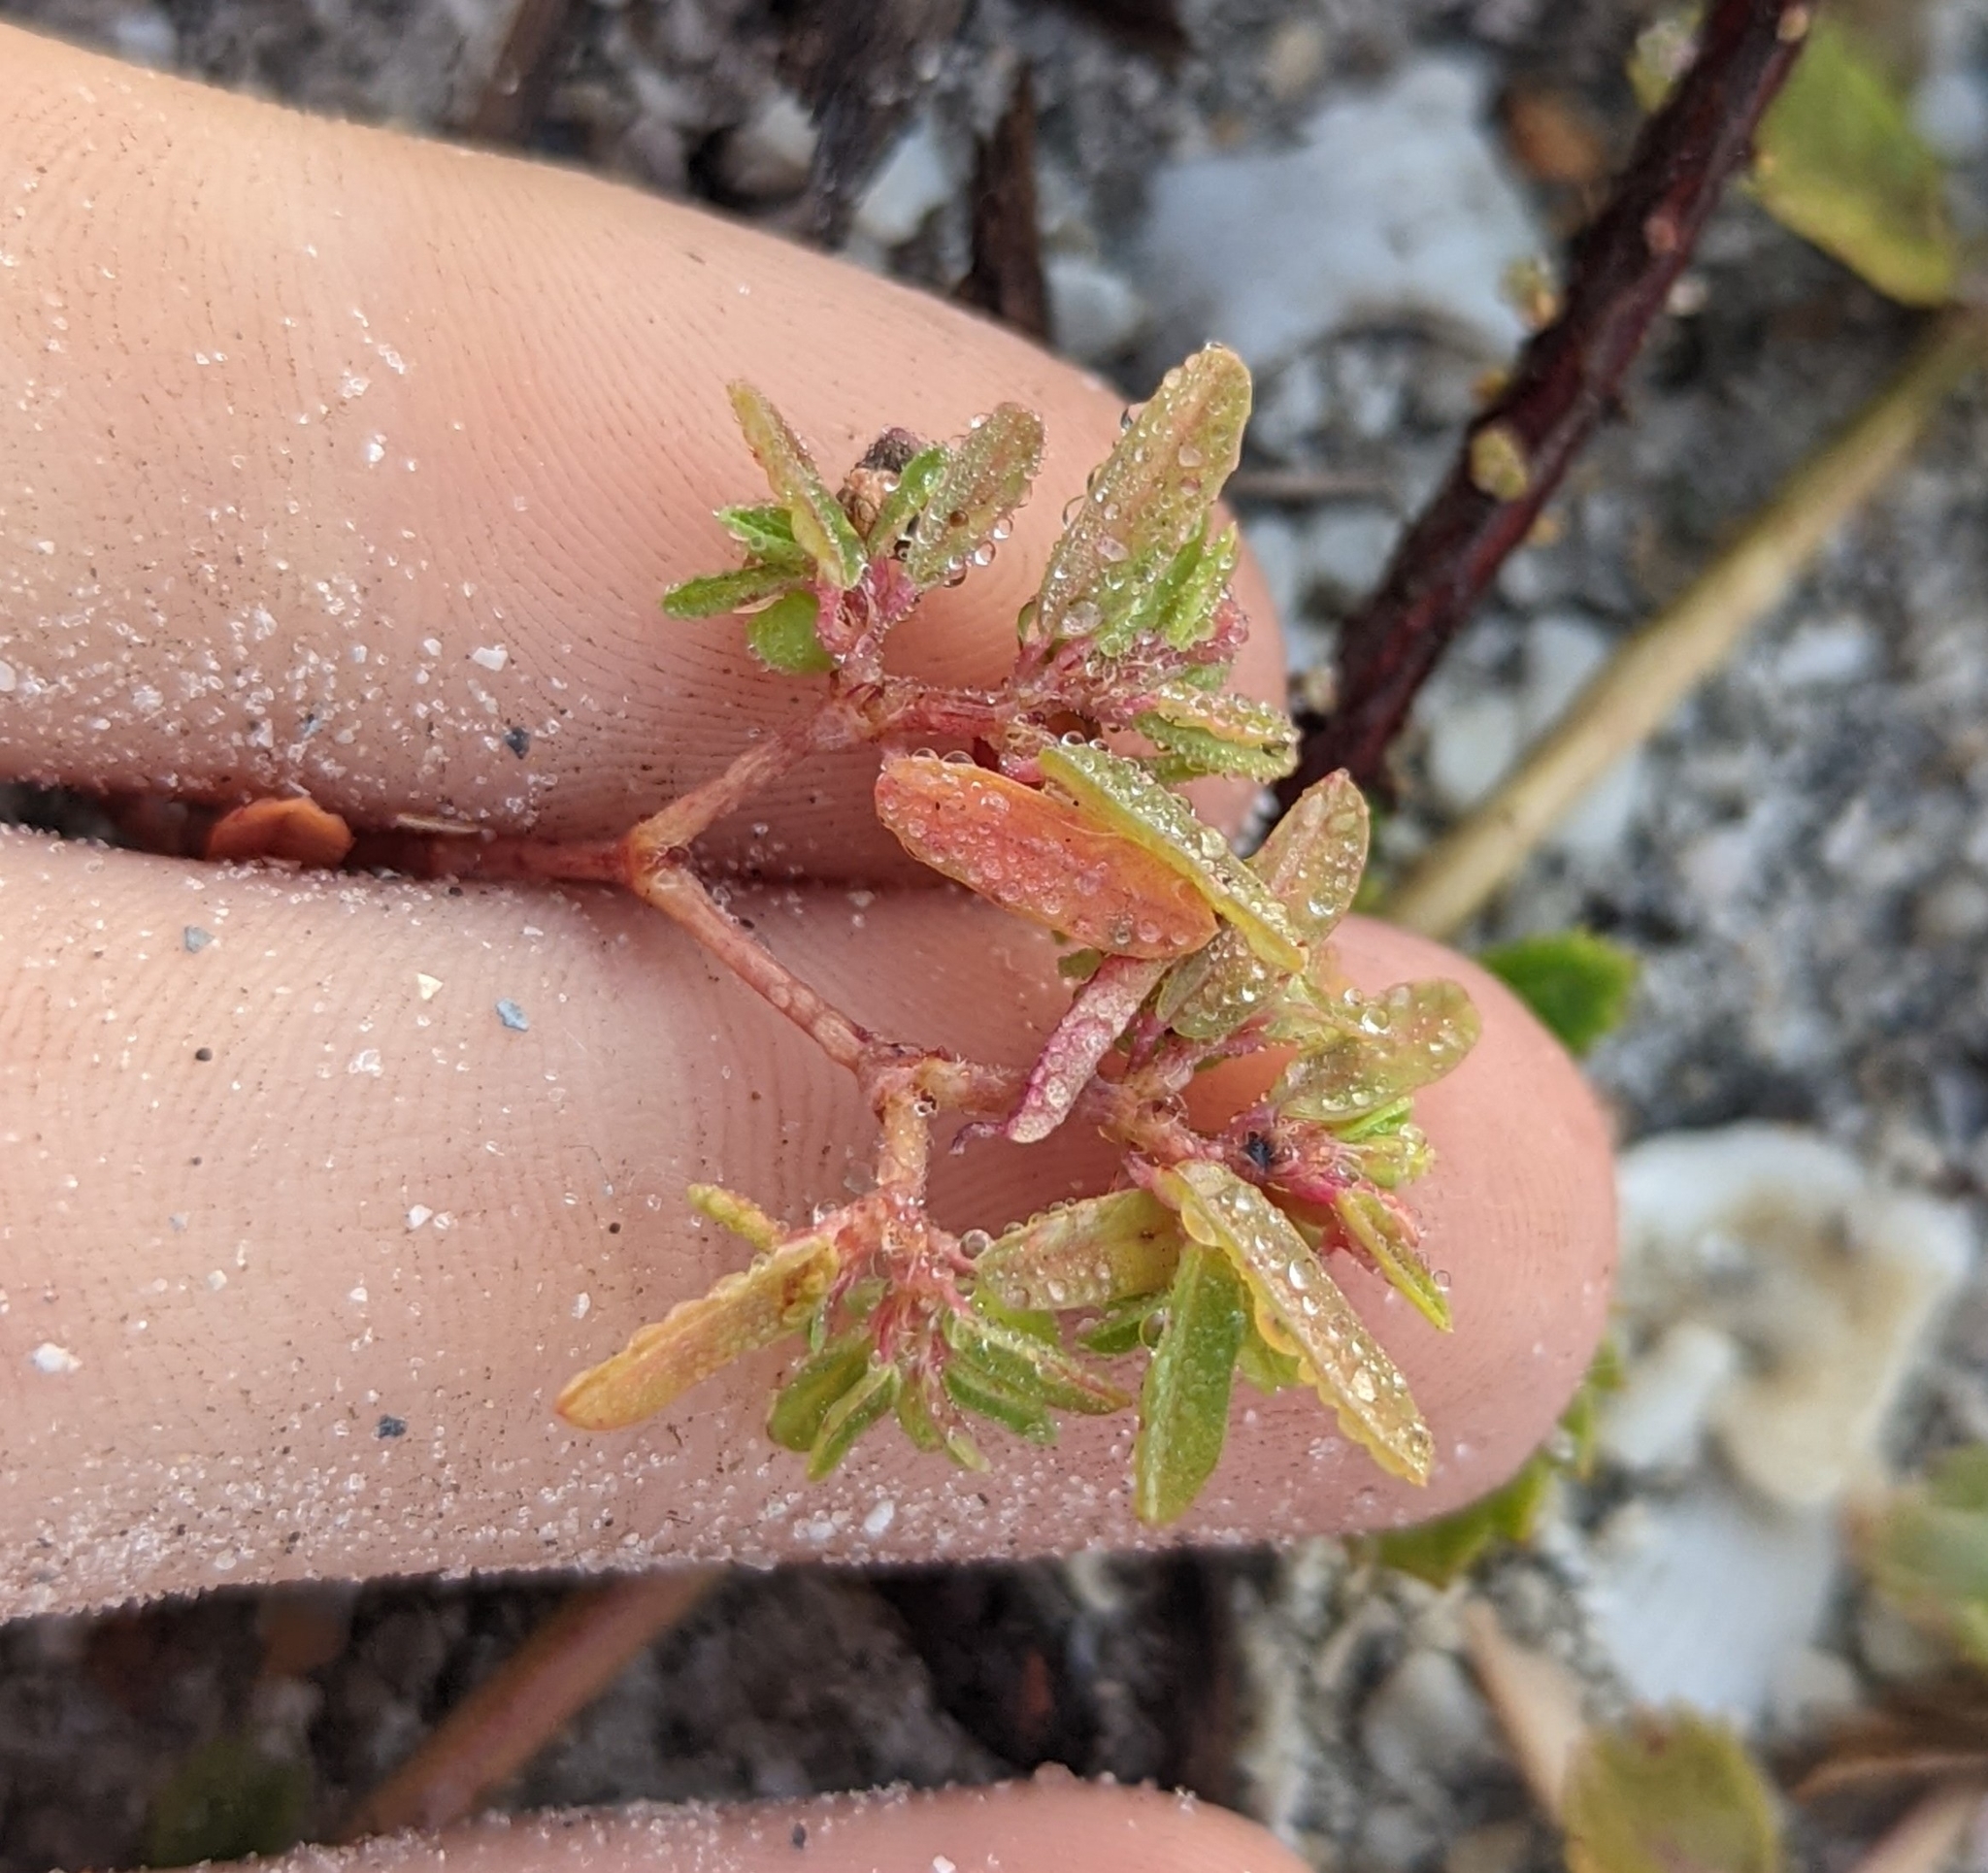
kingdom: Plantae
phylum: Tracheophyta
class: Magnoliopsida
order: Malpighiales
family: Euphorbiaceae
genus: Euphorbia
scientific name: Euphorbia bombensis
